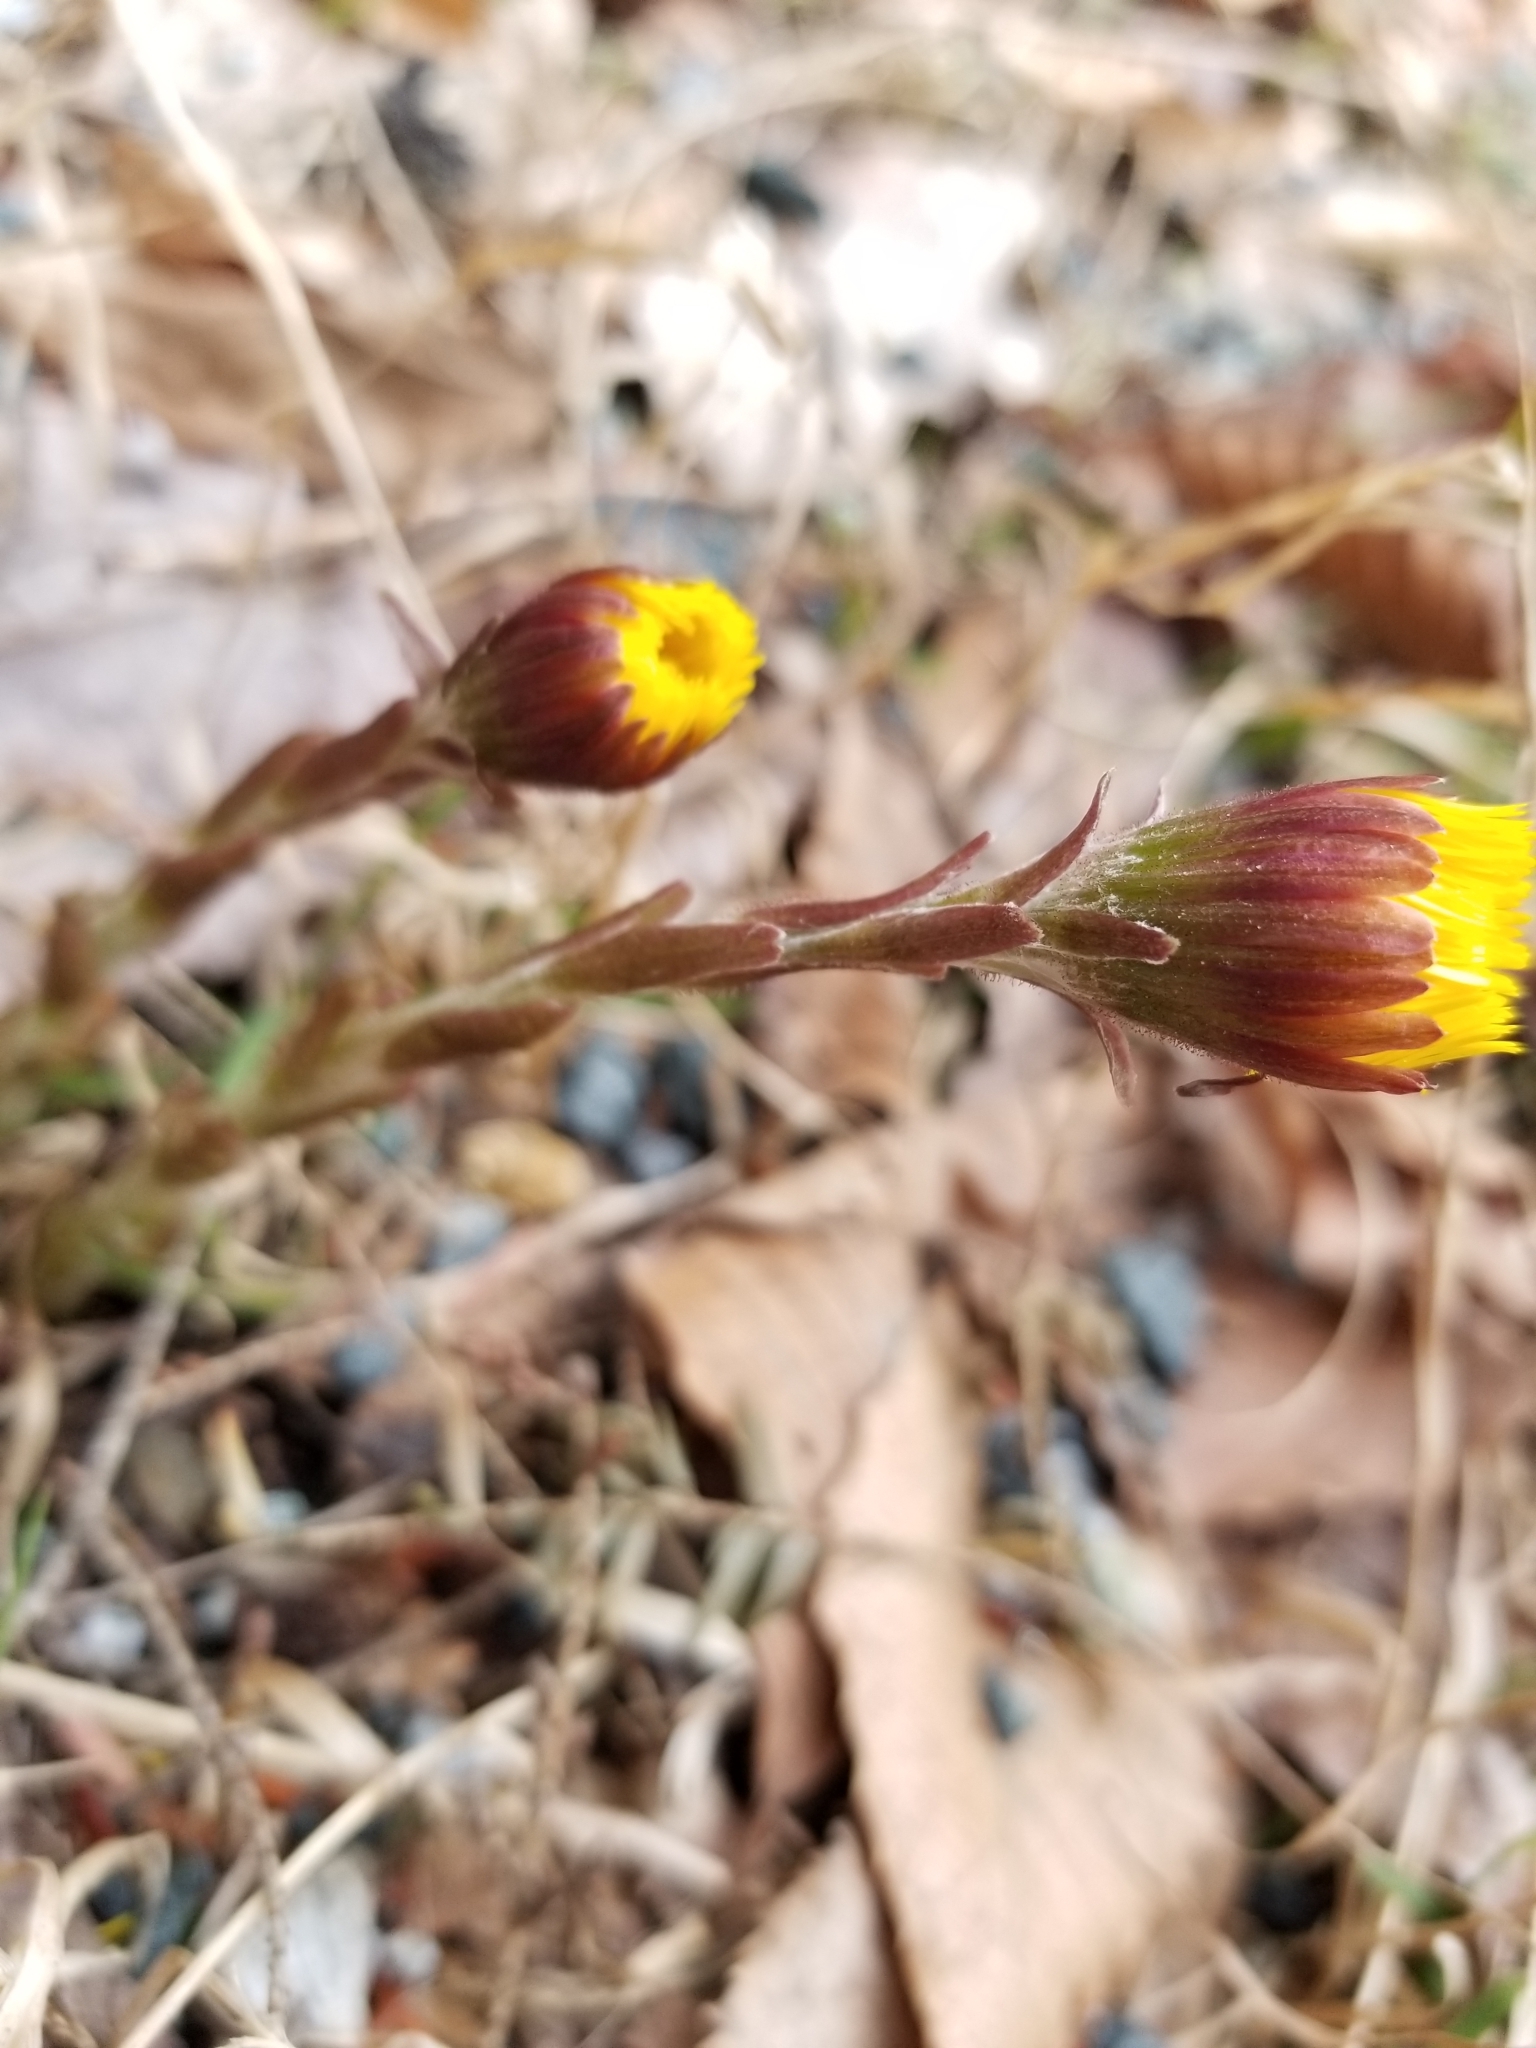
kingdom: Plantae
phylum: Tracheophyta
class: Magnoliopsida
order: Asterales
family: Asteraceae
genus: Tussilago
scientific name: Tussilago farfara
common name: Coltsfoot
